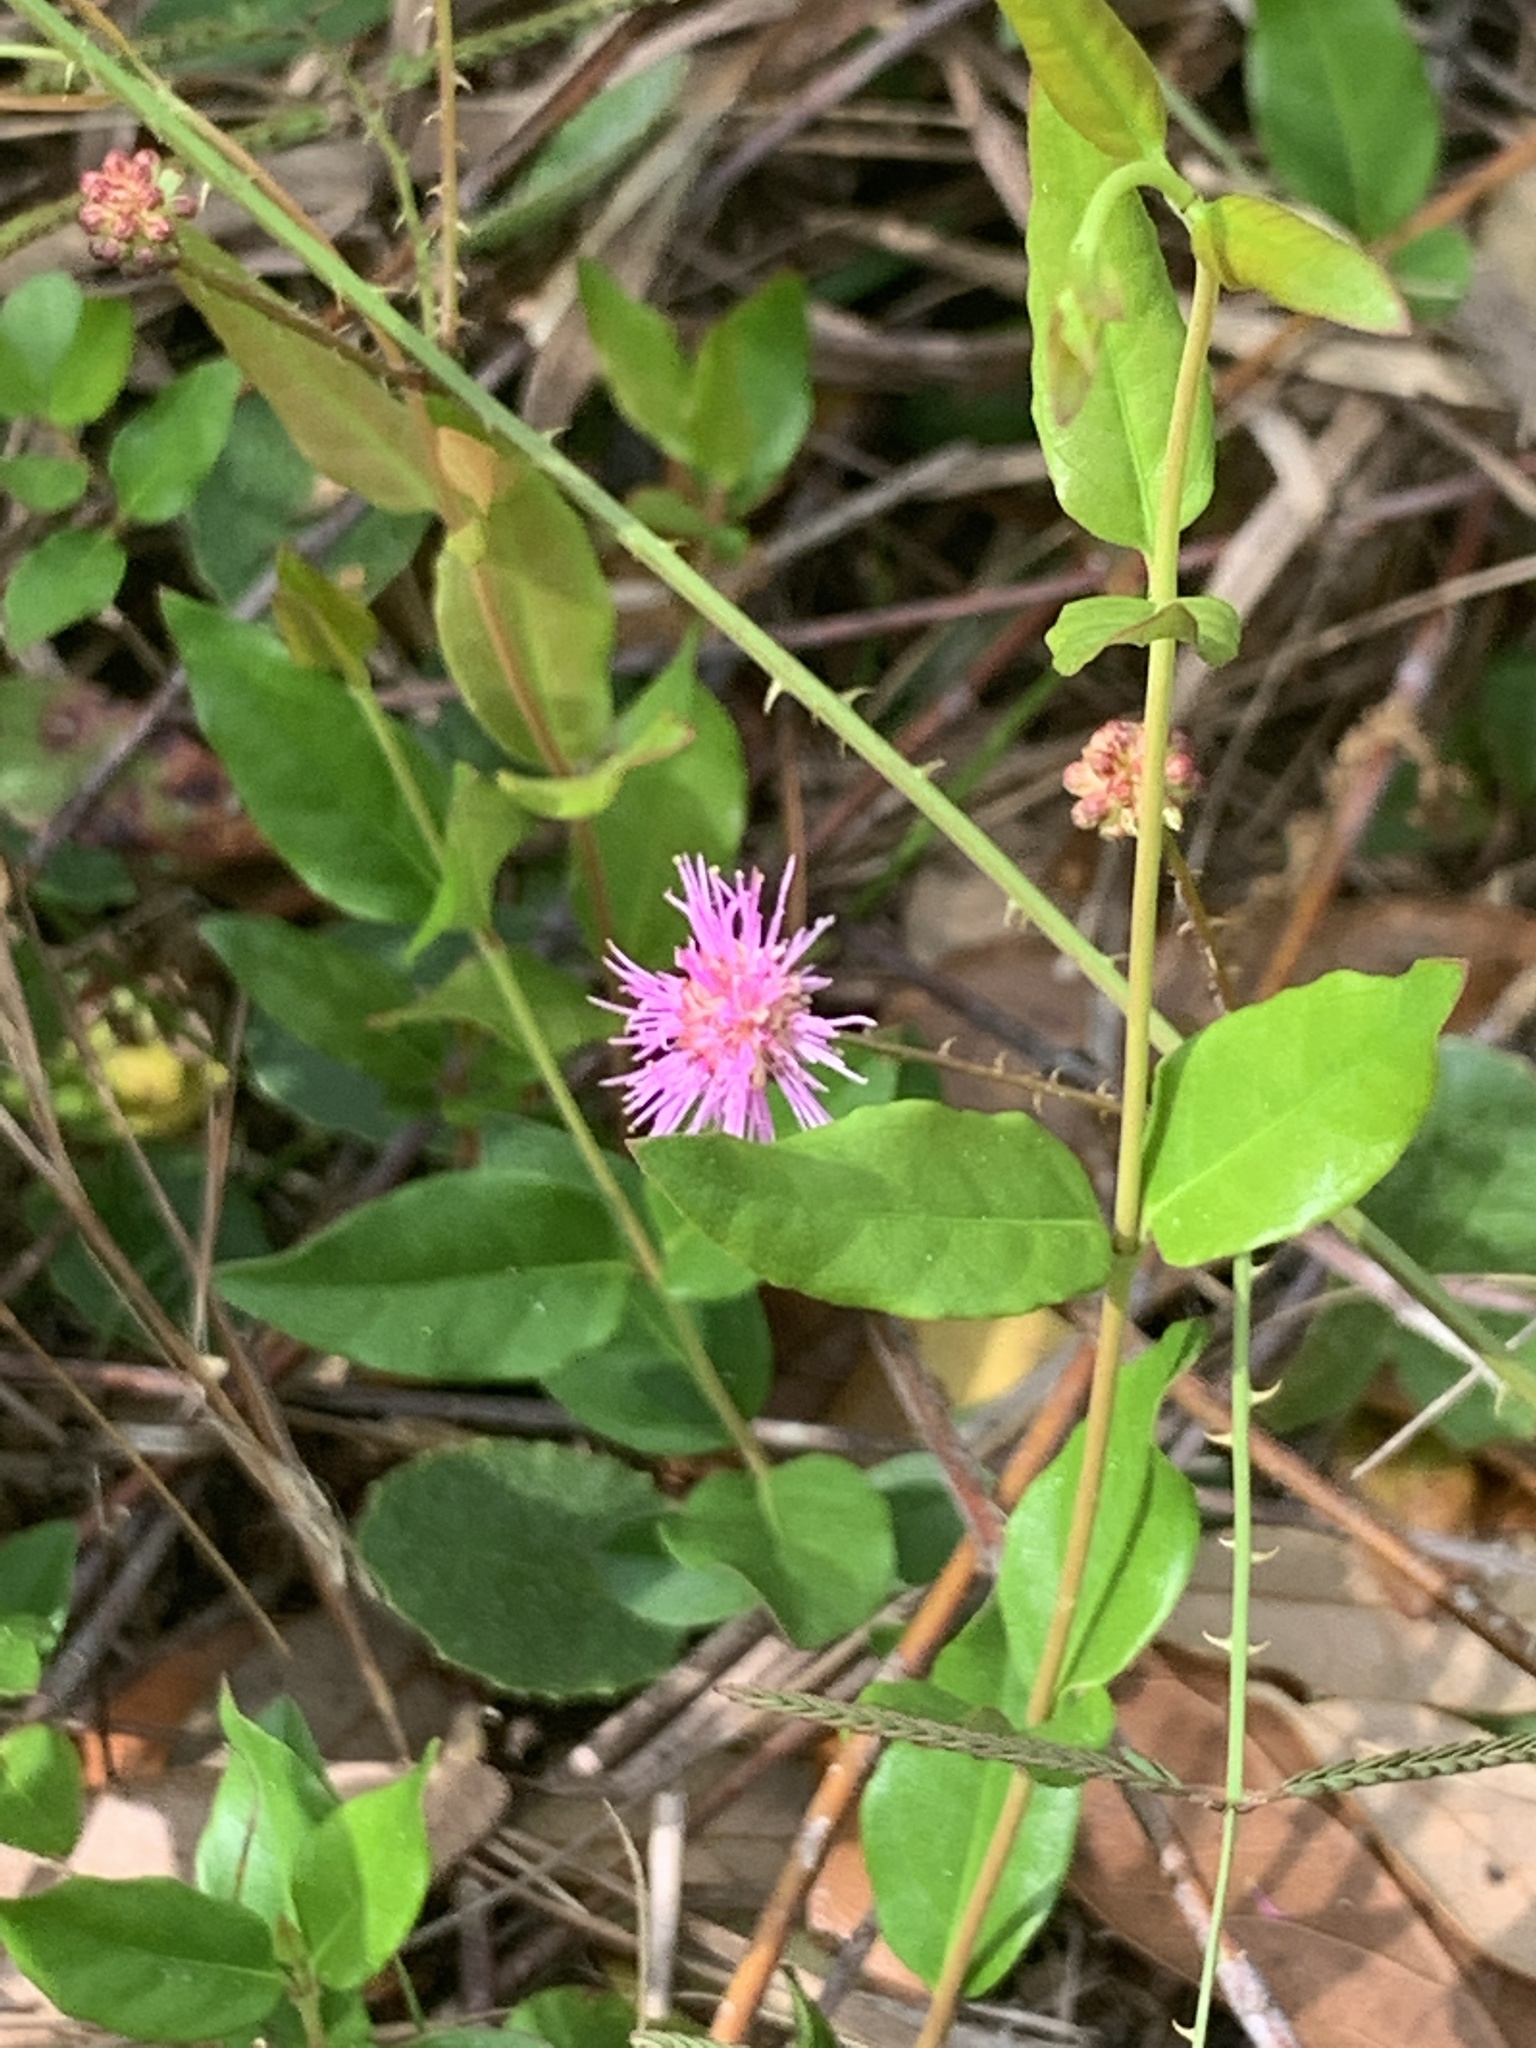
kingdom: Plantae
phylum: Tracheophyta
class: Magnoliopsida
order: Fabales
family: Fabaceae
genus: Mimosa
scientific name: Mimosa quadrivalvis
